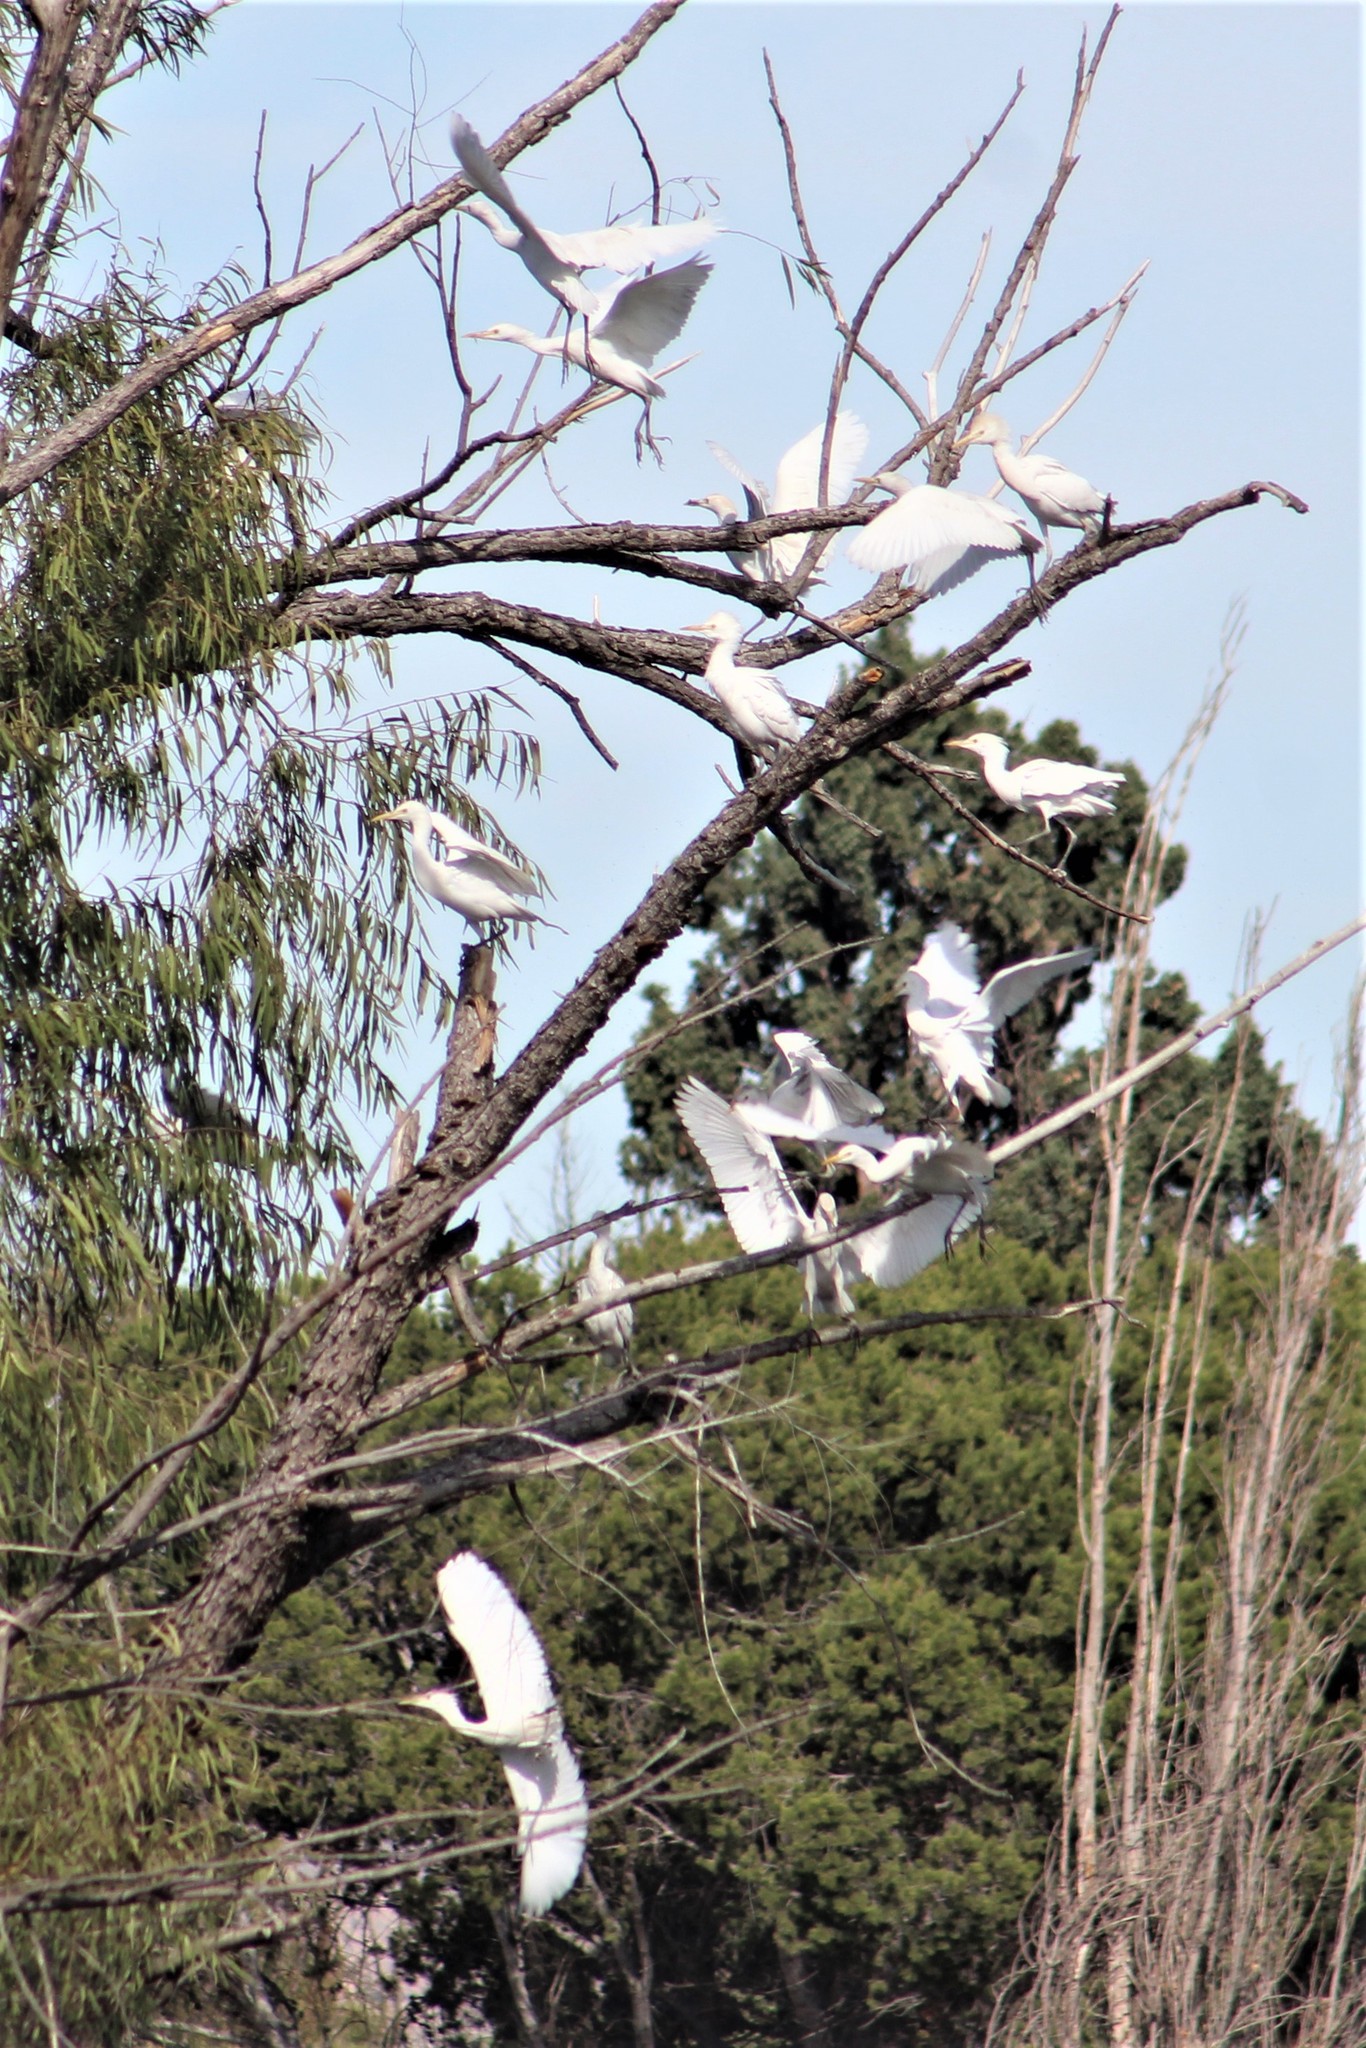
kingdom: Animalia
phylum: Chordata
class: Aves
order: Pelecaniformes
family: Ardeidae
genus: Bubulcus
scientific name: Bubulcus ibis
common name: Cattle egret
